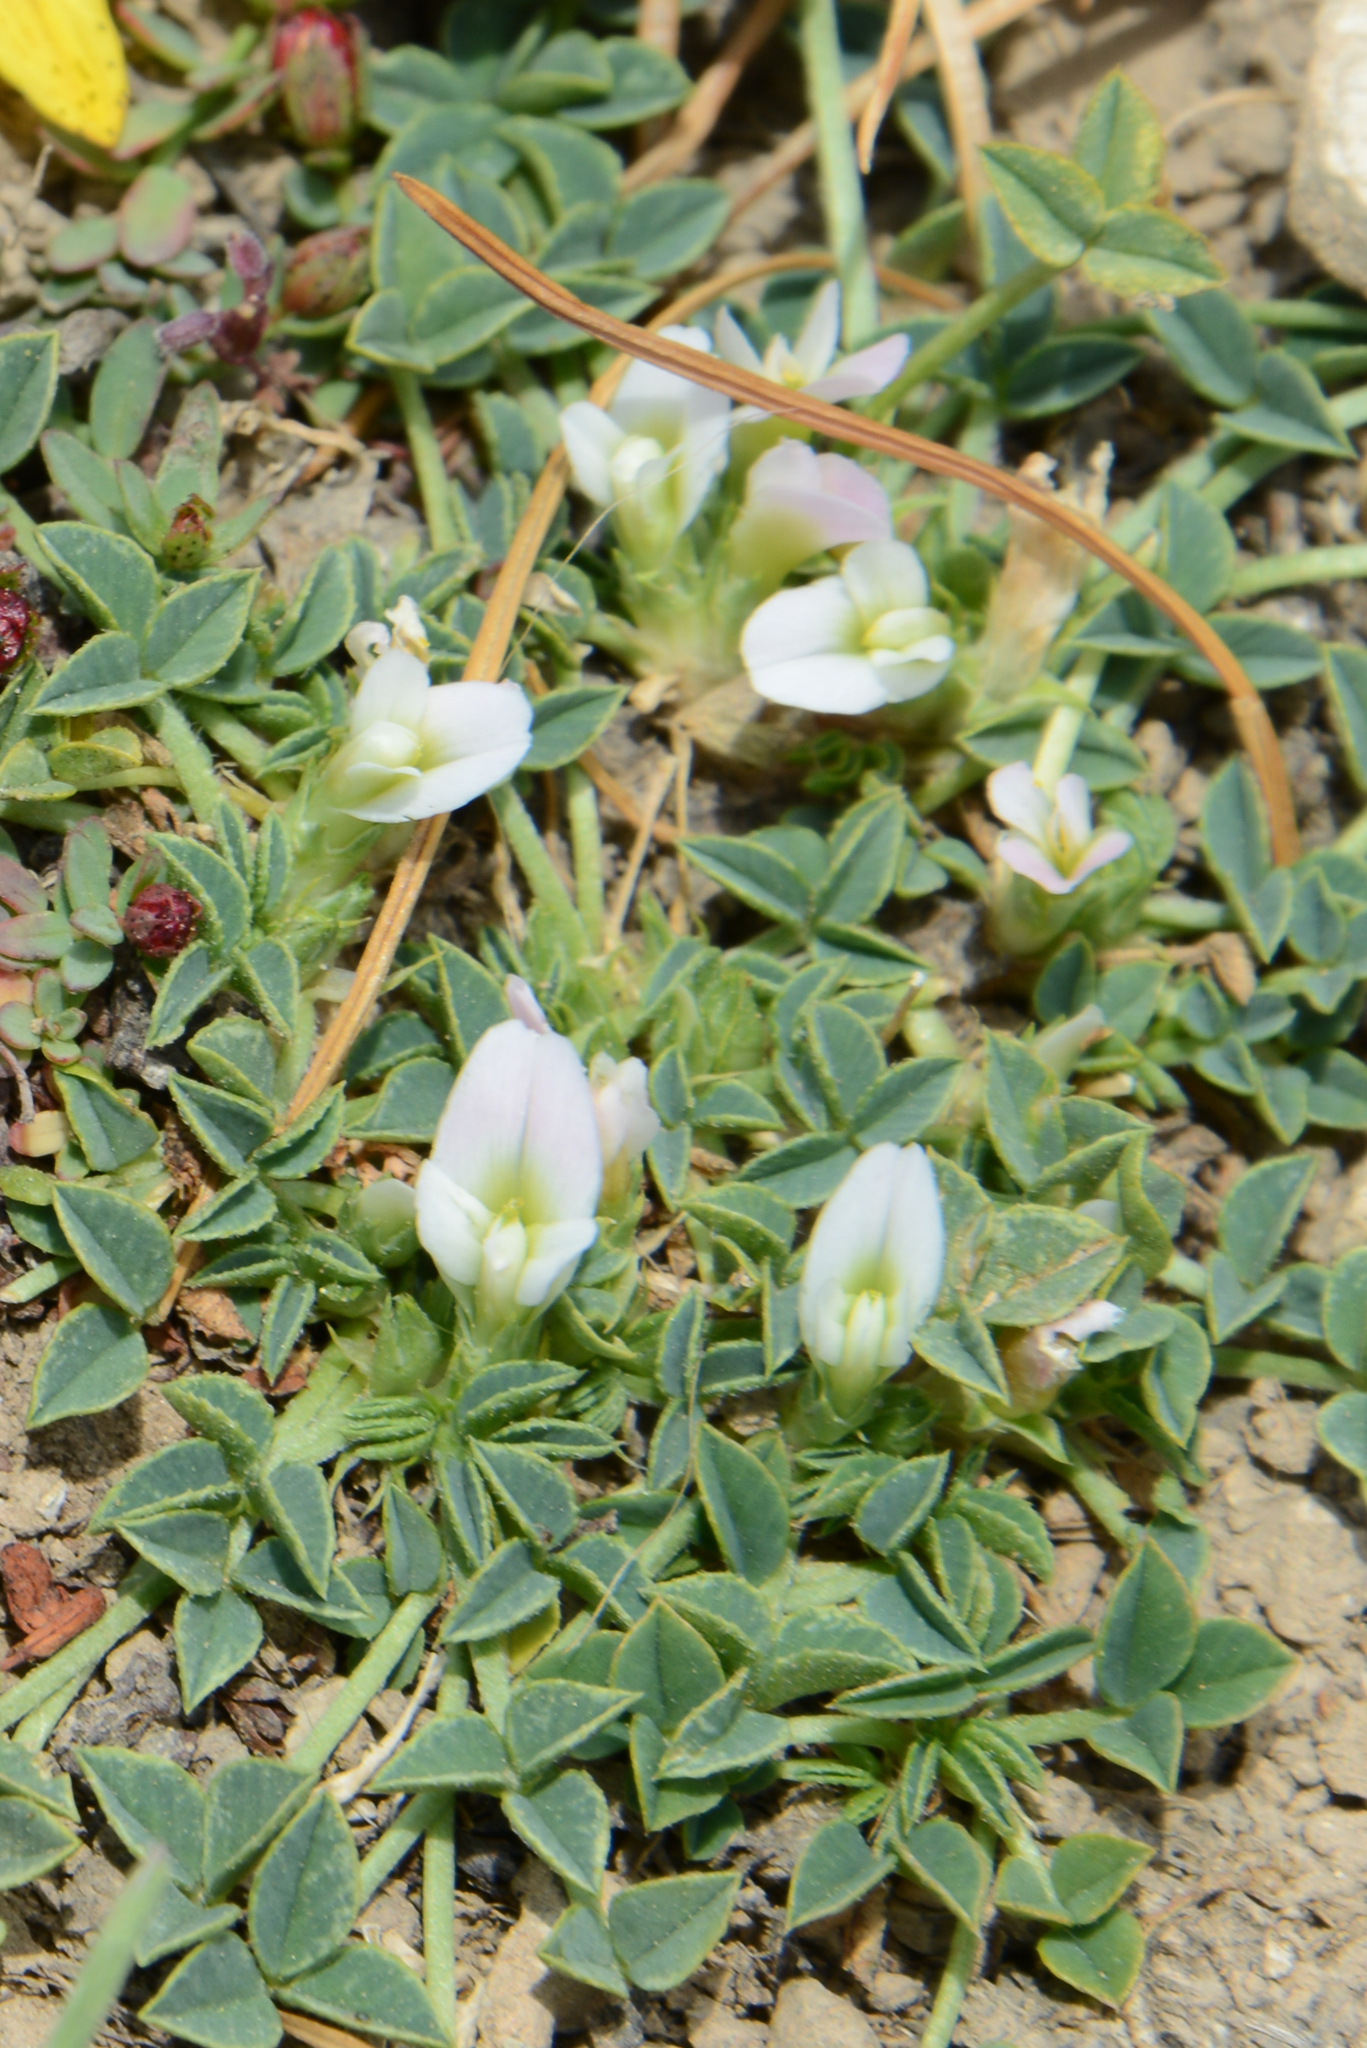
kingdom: Plantae
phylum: Tracheophyta
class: Magnoliopsida
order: Fabales
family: Fabaceae
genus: Trifolium
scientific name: Trifolium uniflorum
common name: One-flower clover
